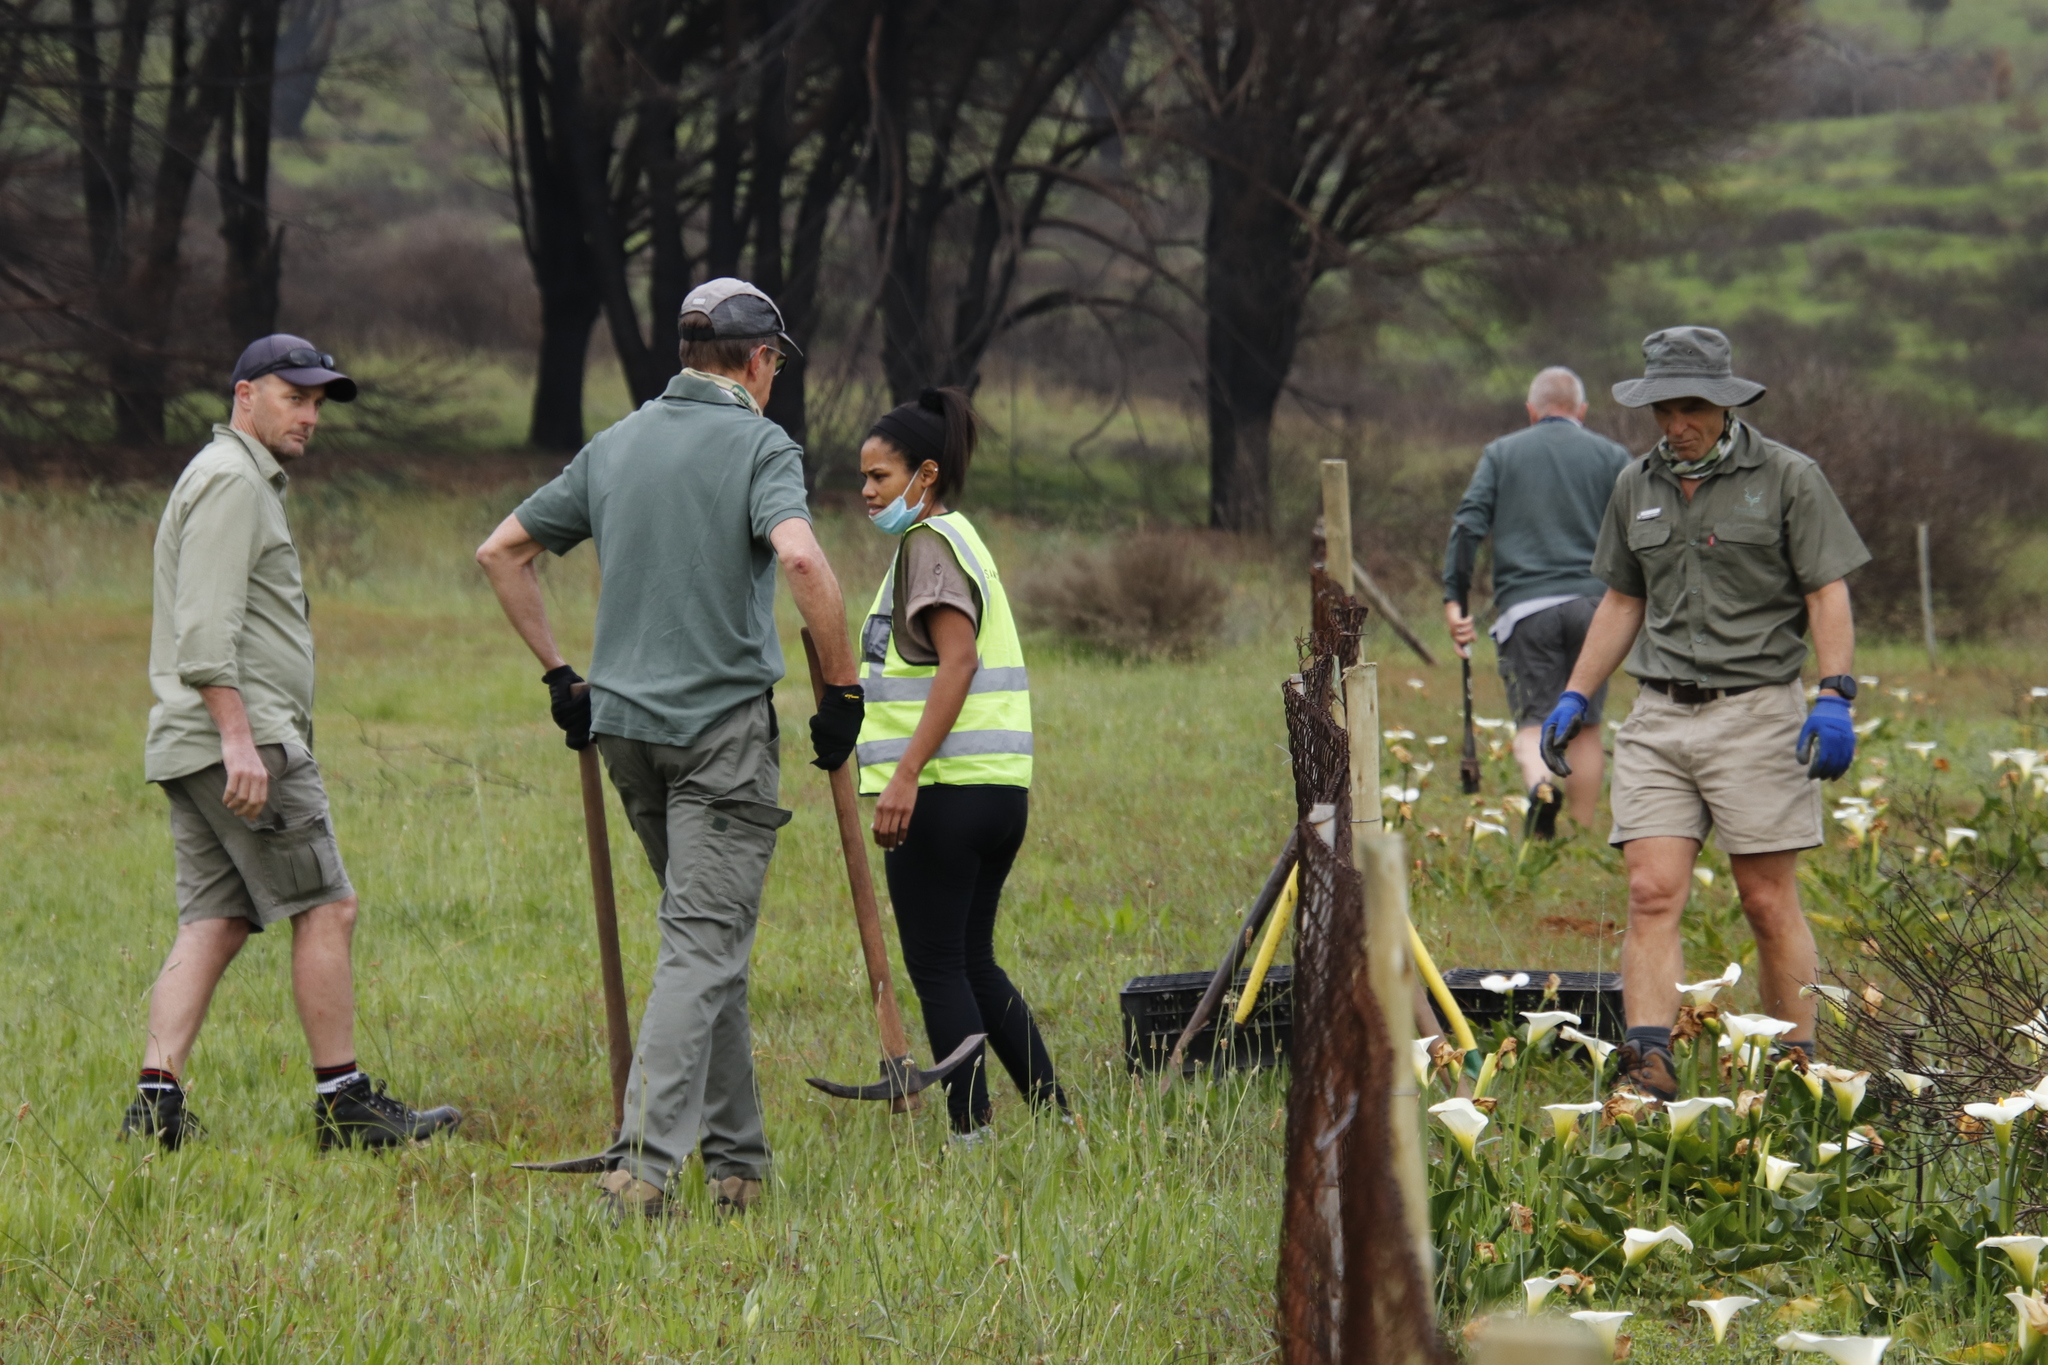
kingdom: Plantae
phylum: Tracheophyta
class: Liliopsida
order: Alismatales
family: Araceae
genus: Zantedeschia
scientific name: Zantedeschia aethiopica
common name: Altar-lily
